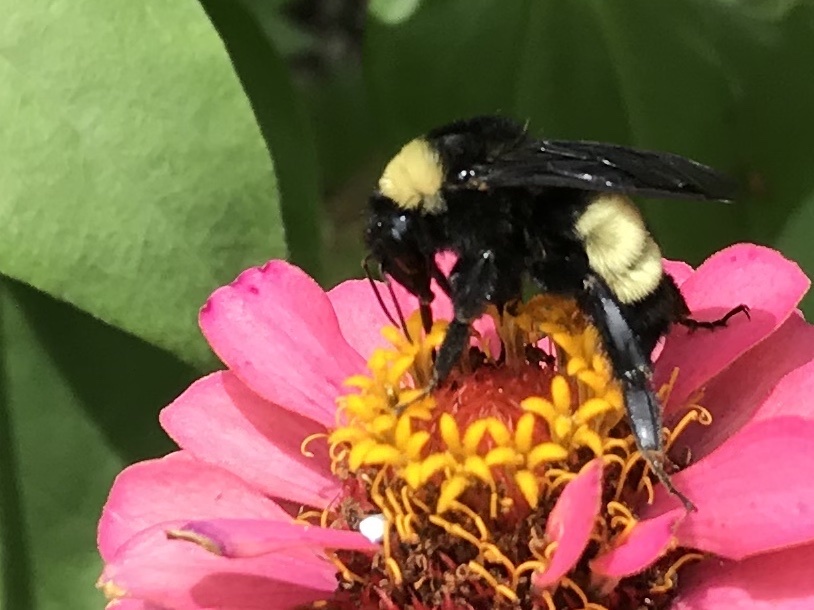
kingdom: Animalia
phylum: Arthropoda
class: Insecta
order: Hymenoptera
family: Apidae
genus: Bombus
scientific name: Bombus pensylvanicus
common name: Bumble bee
